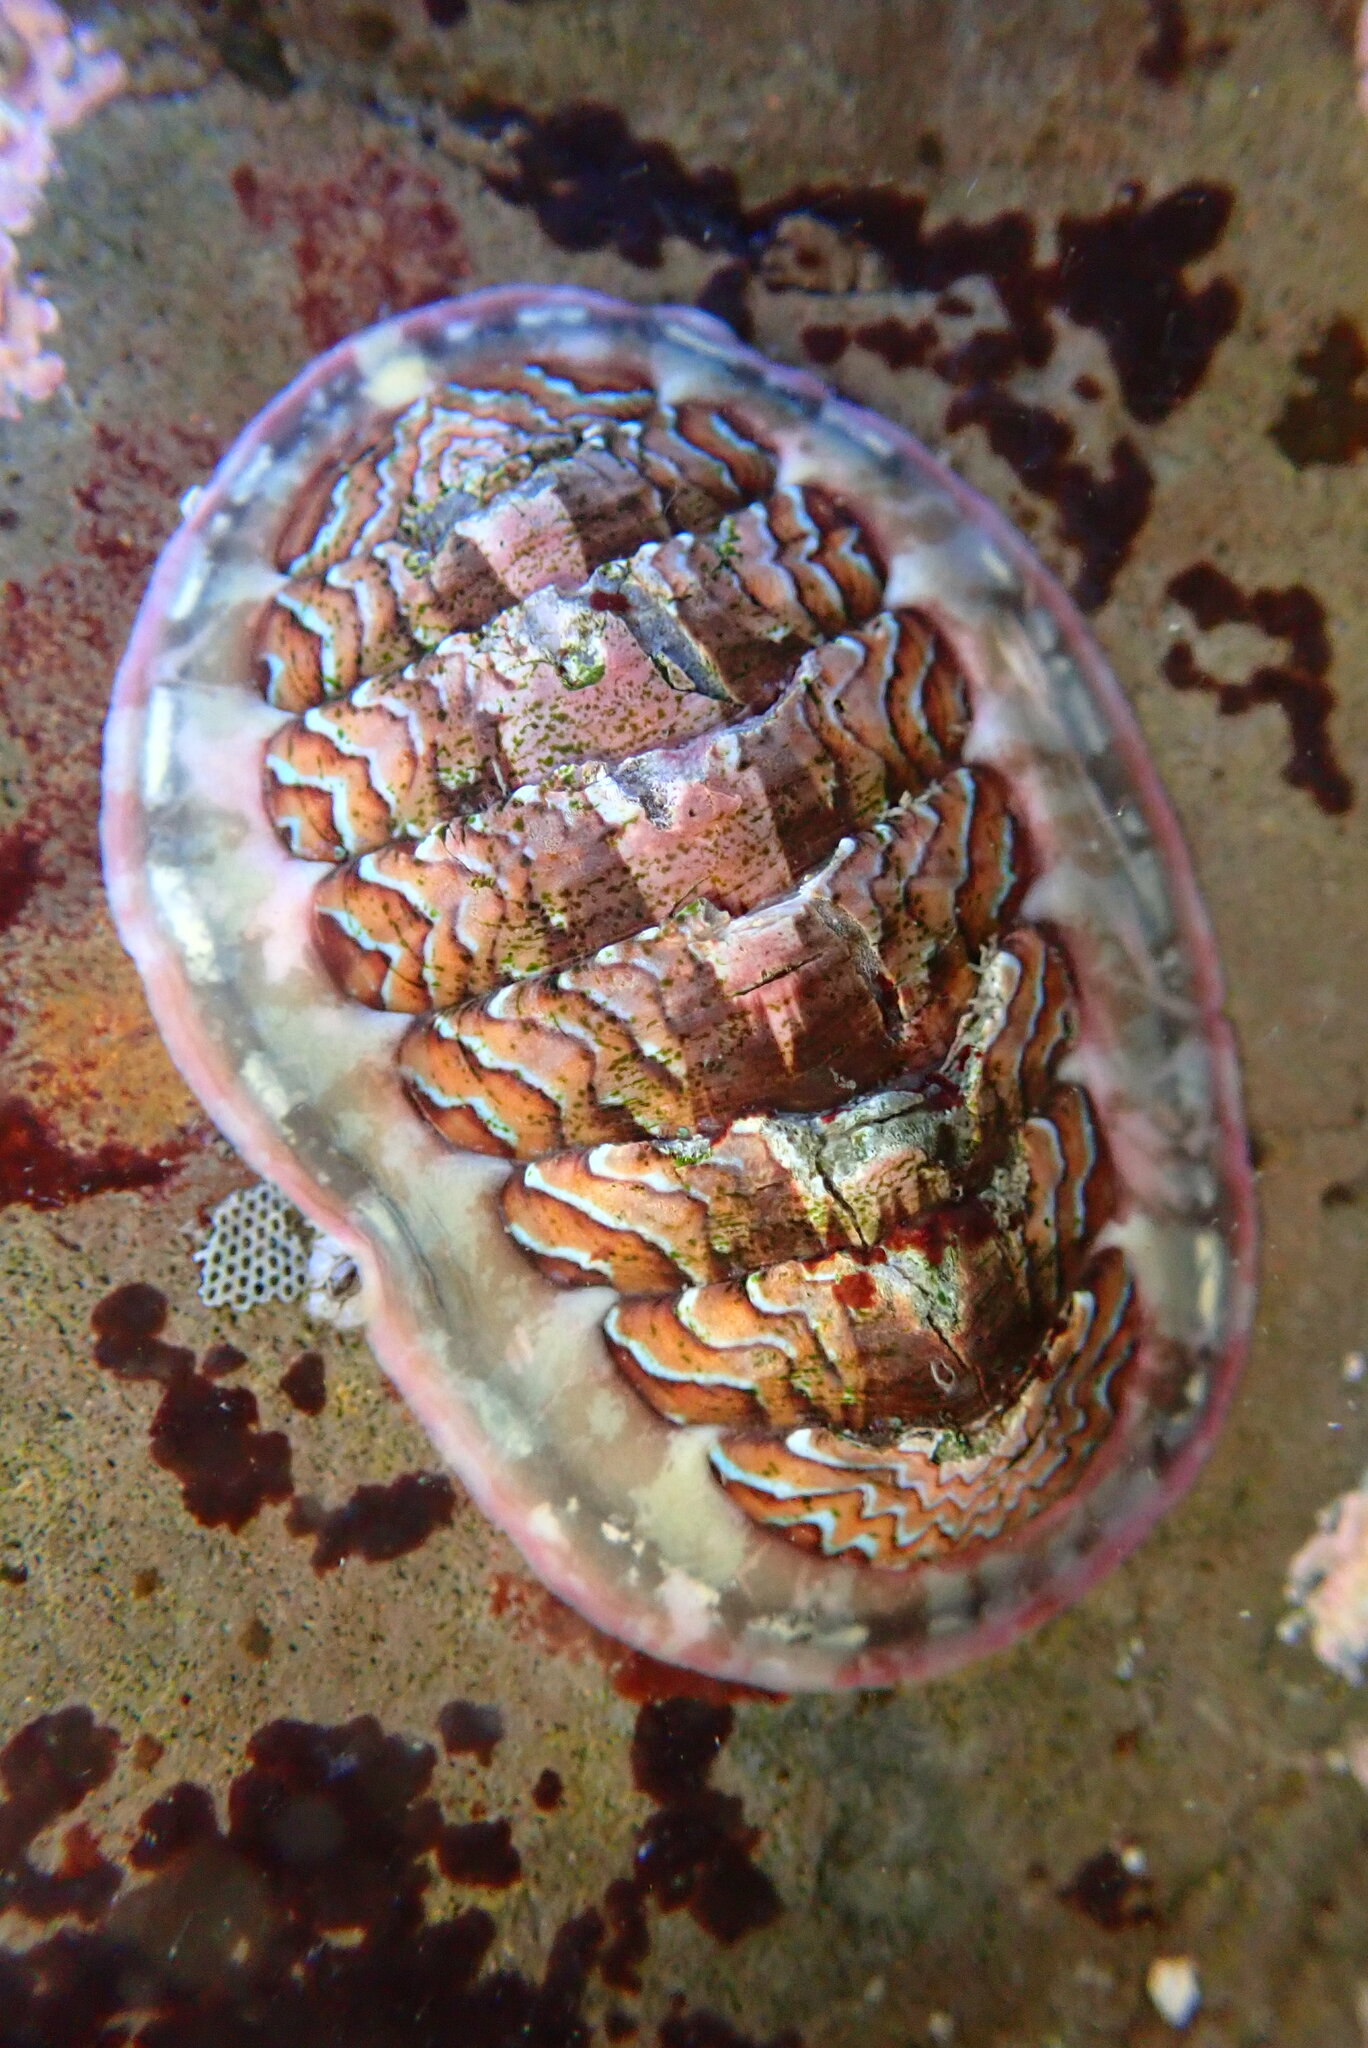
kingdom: Animalia
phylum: Mollusca
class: Polyplacophora
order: Chitonida
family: Tonicellidae
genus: Tonicella
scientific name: Tonicella lokii
